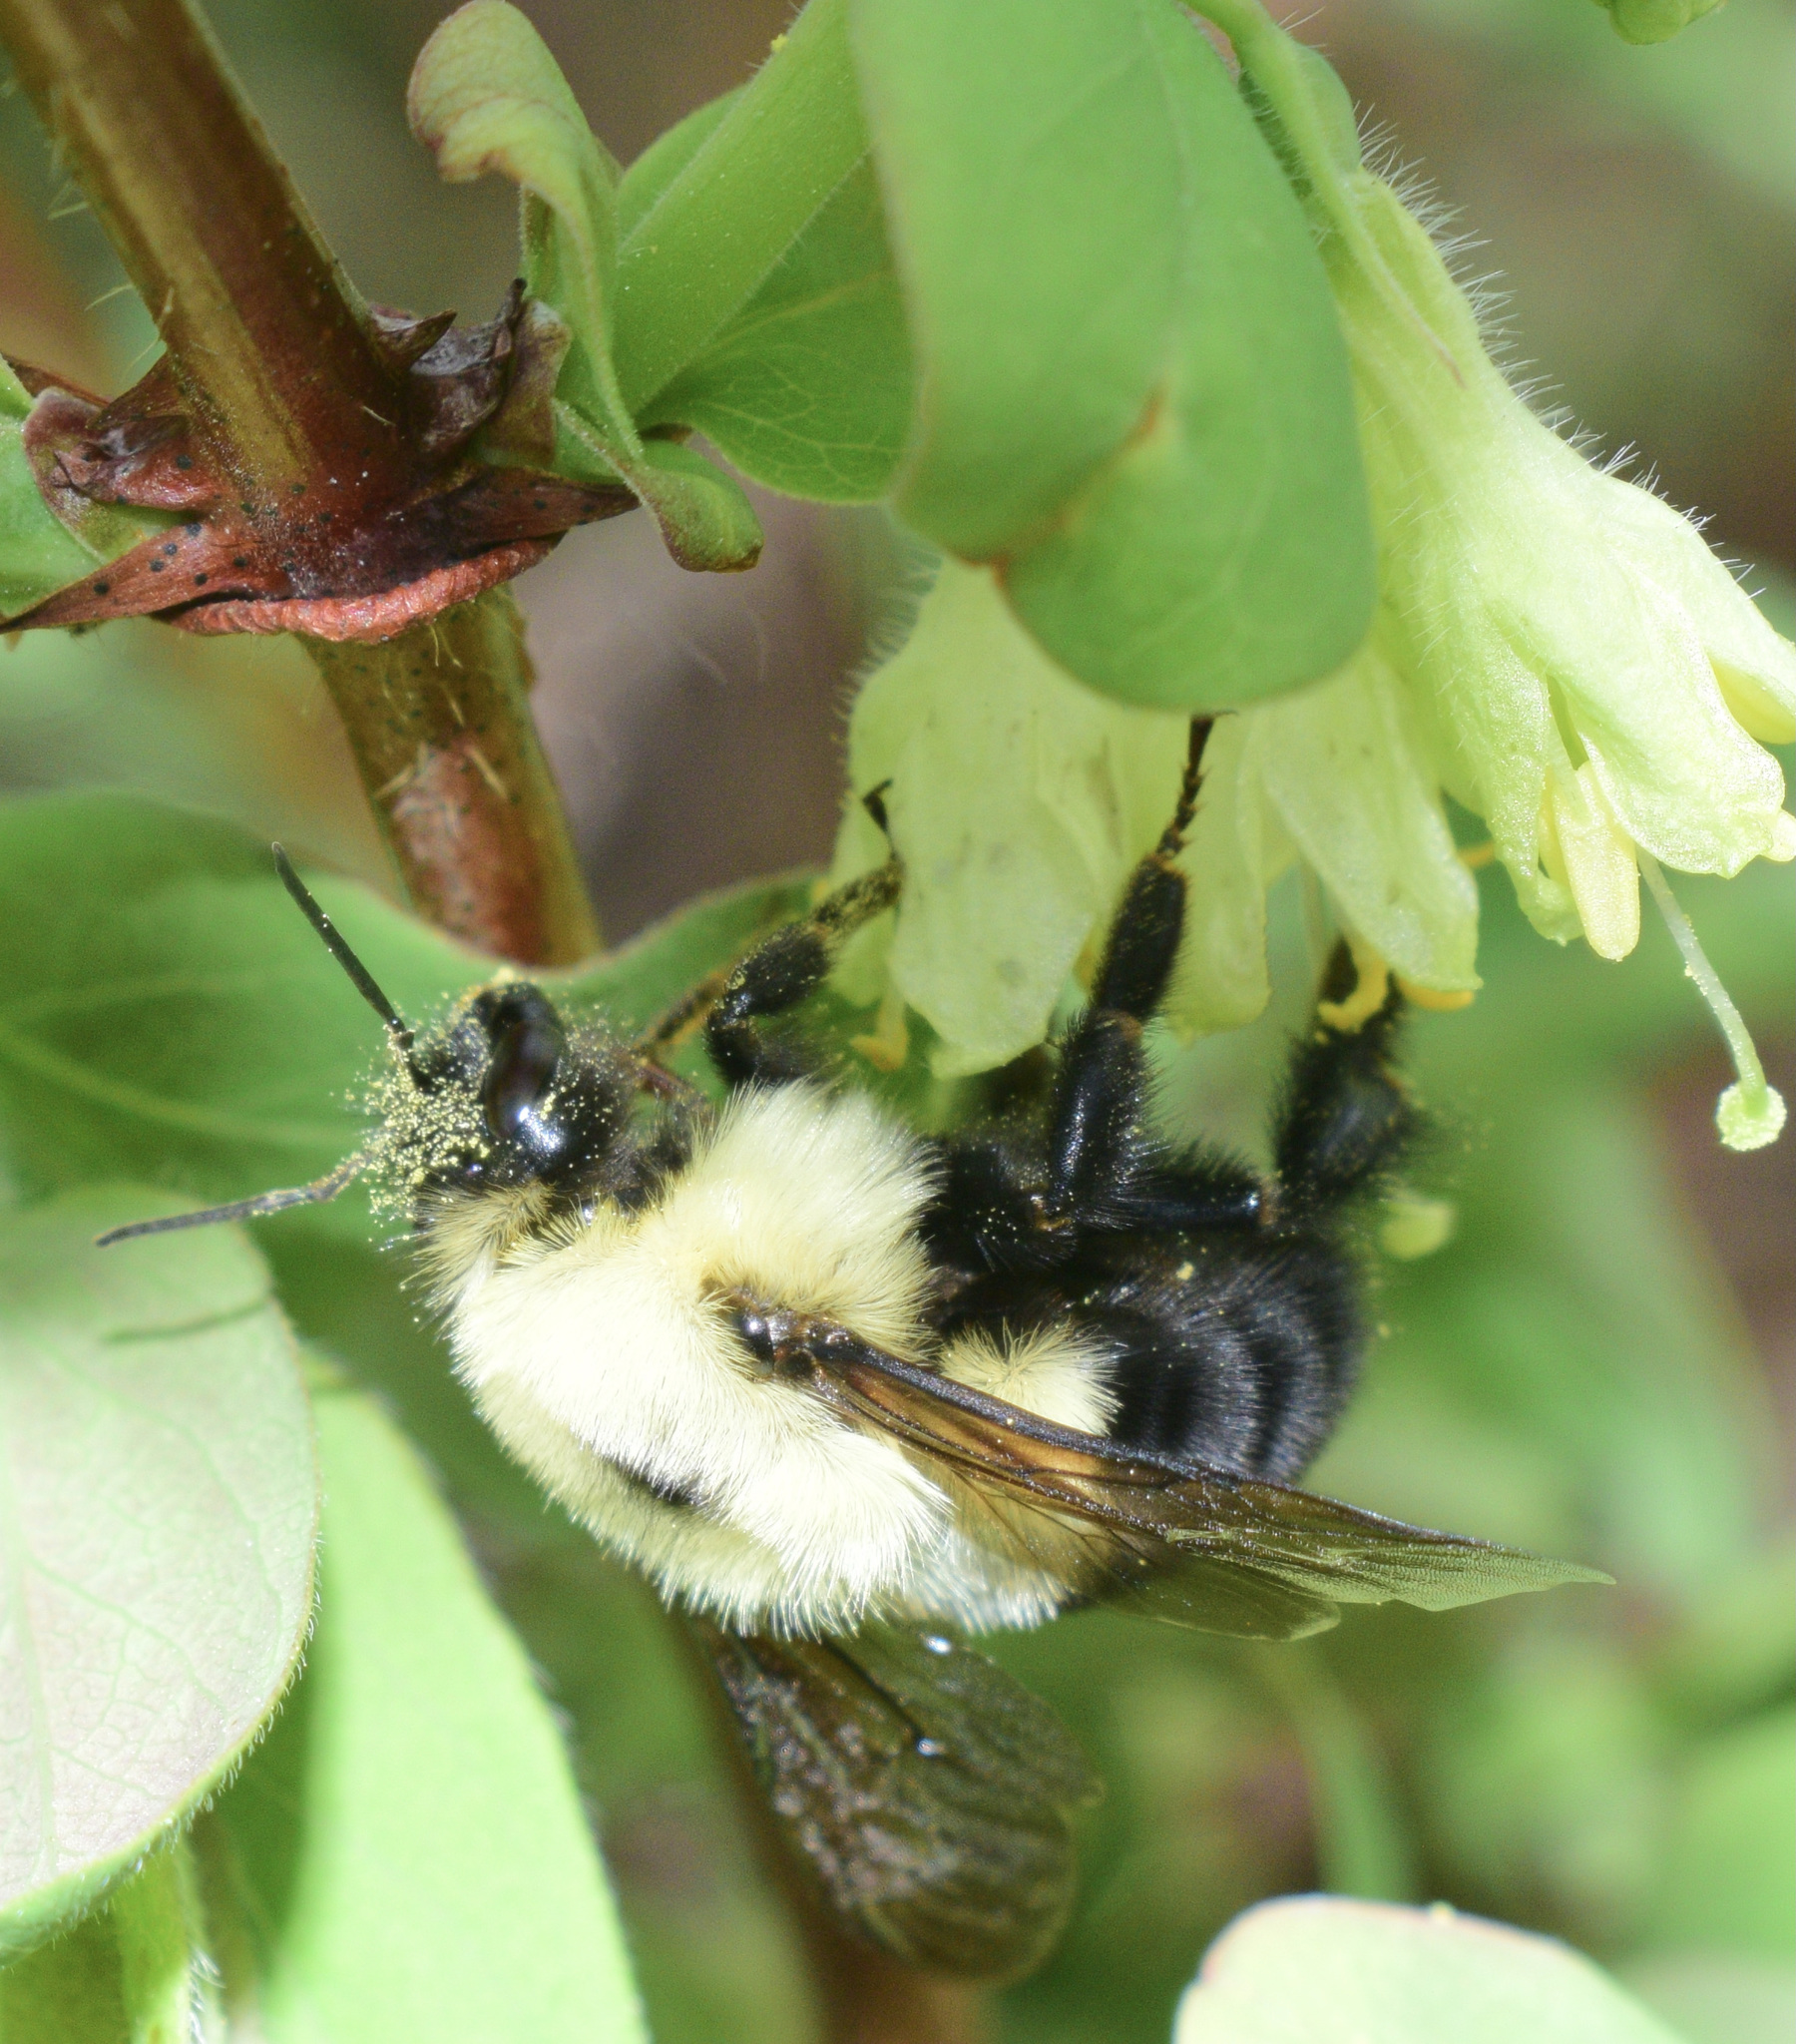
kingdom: Animalia
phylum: Arthropoda
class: Insecta
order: Hymenoptera
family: Apidae
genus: Bombus
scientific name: Bombus bimaculatus
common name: Two-spotted bumble bee
